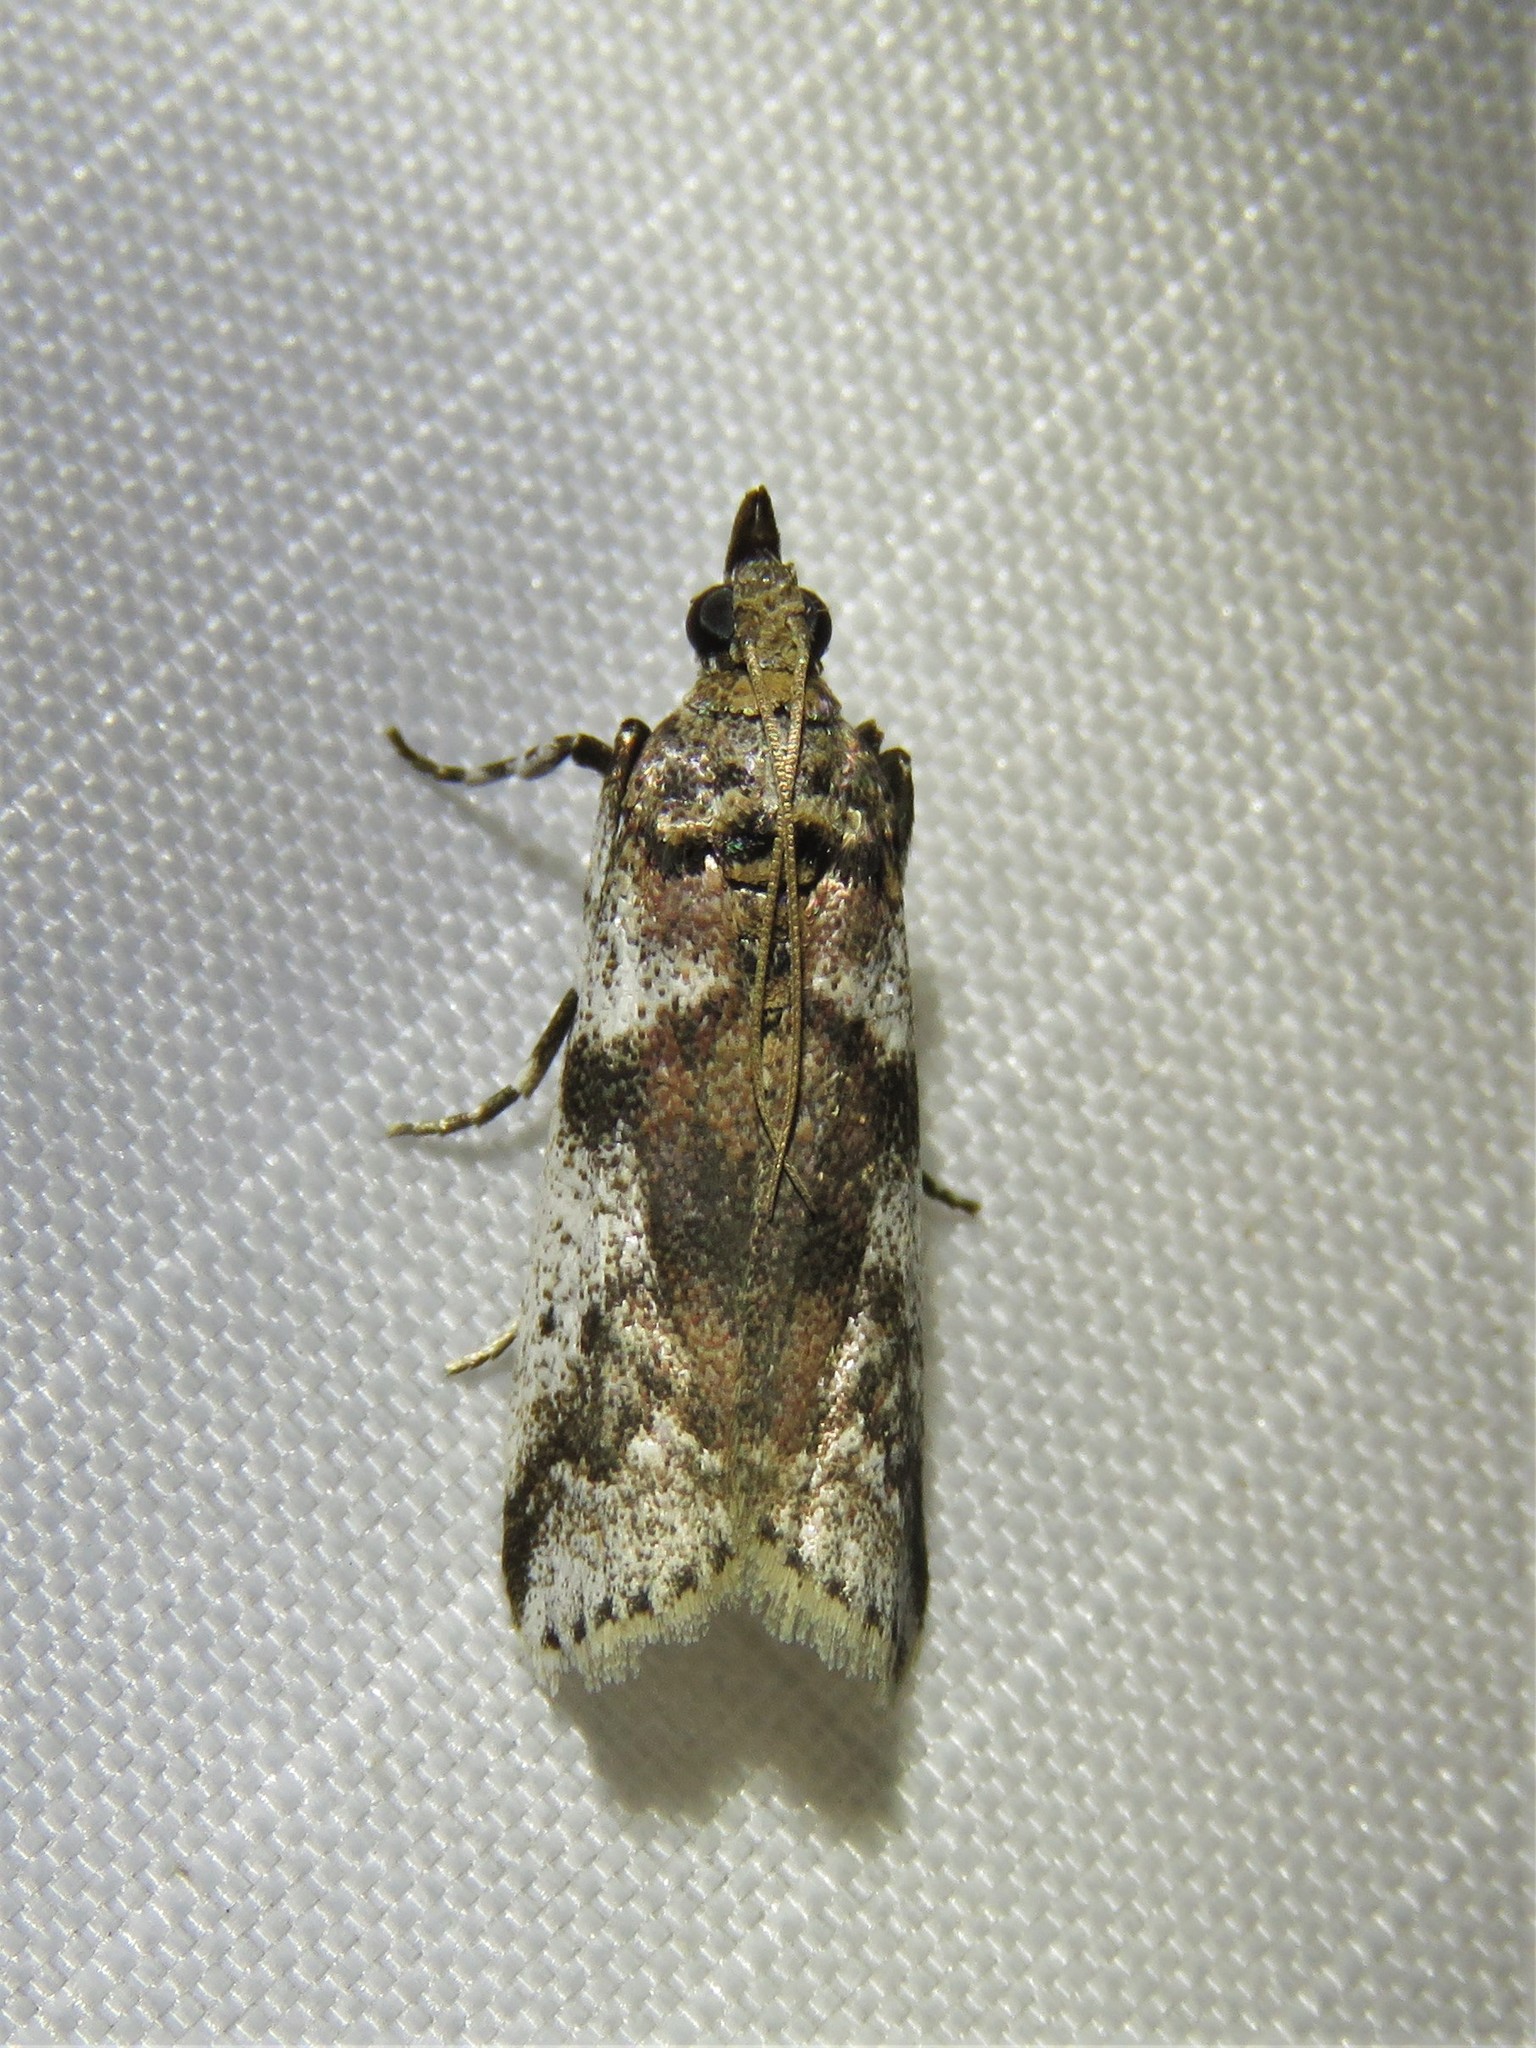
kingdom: Animalia
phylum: Arthropoda
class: Insecta
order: Lepidoptera
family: Pyralidae
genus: Laetilia
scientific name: Laetilia coccidivora
